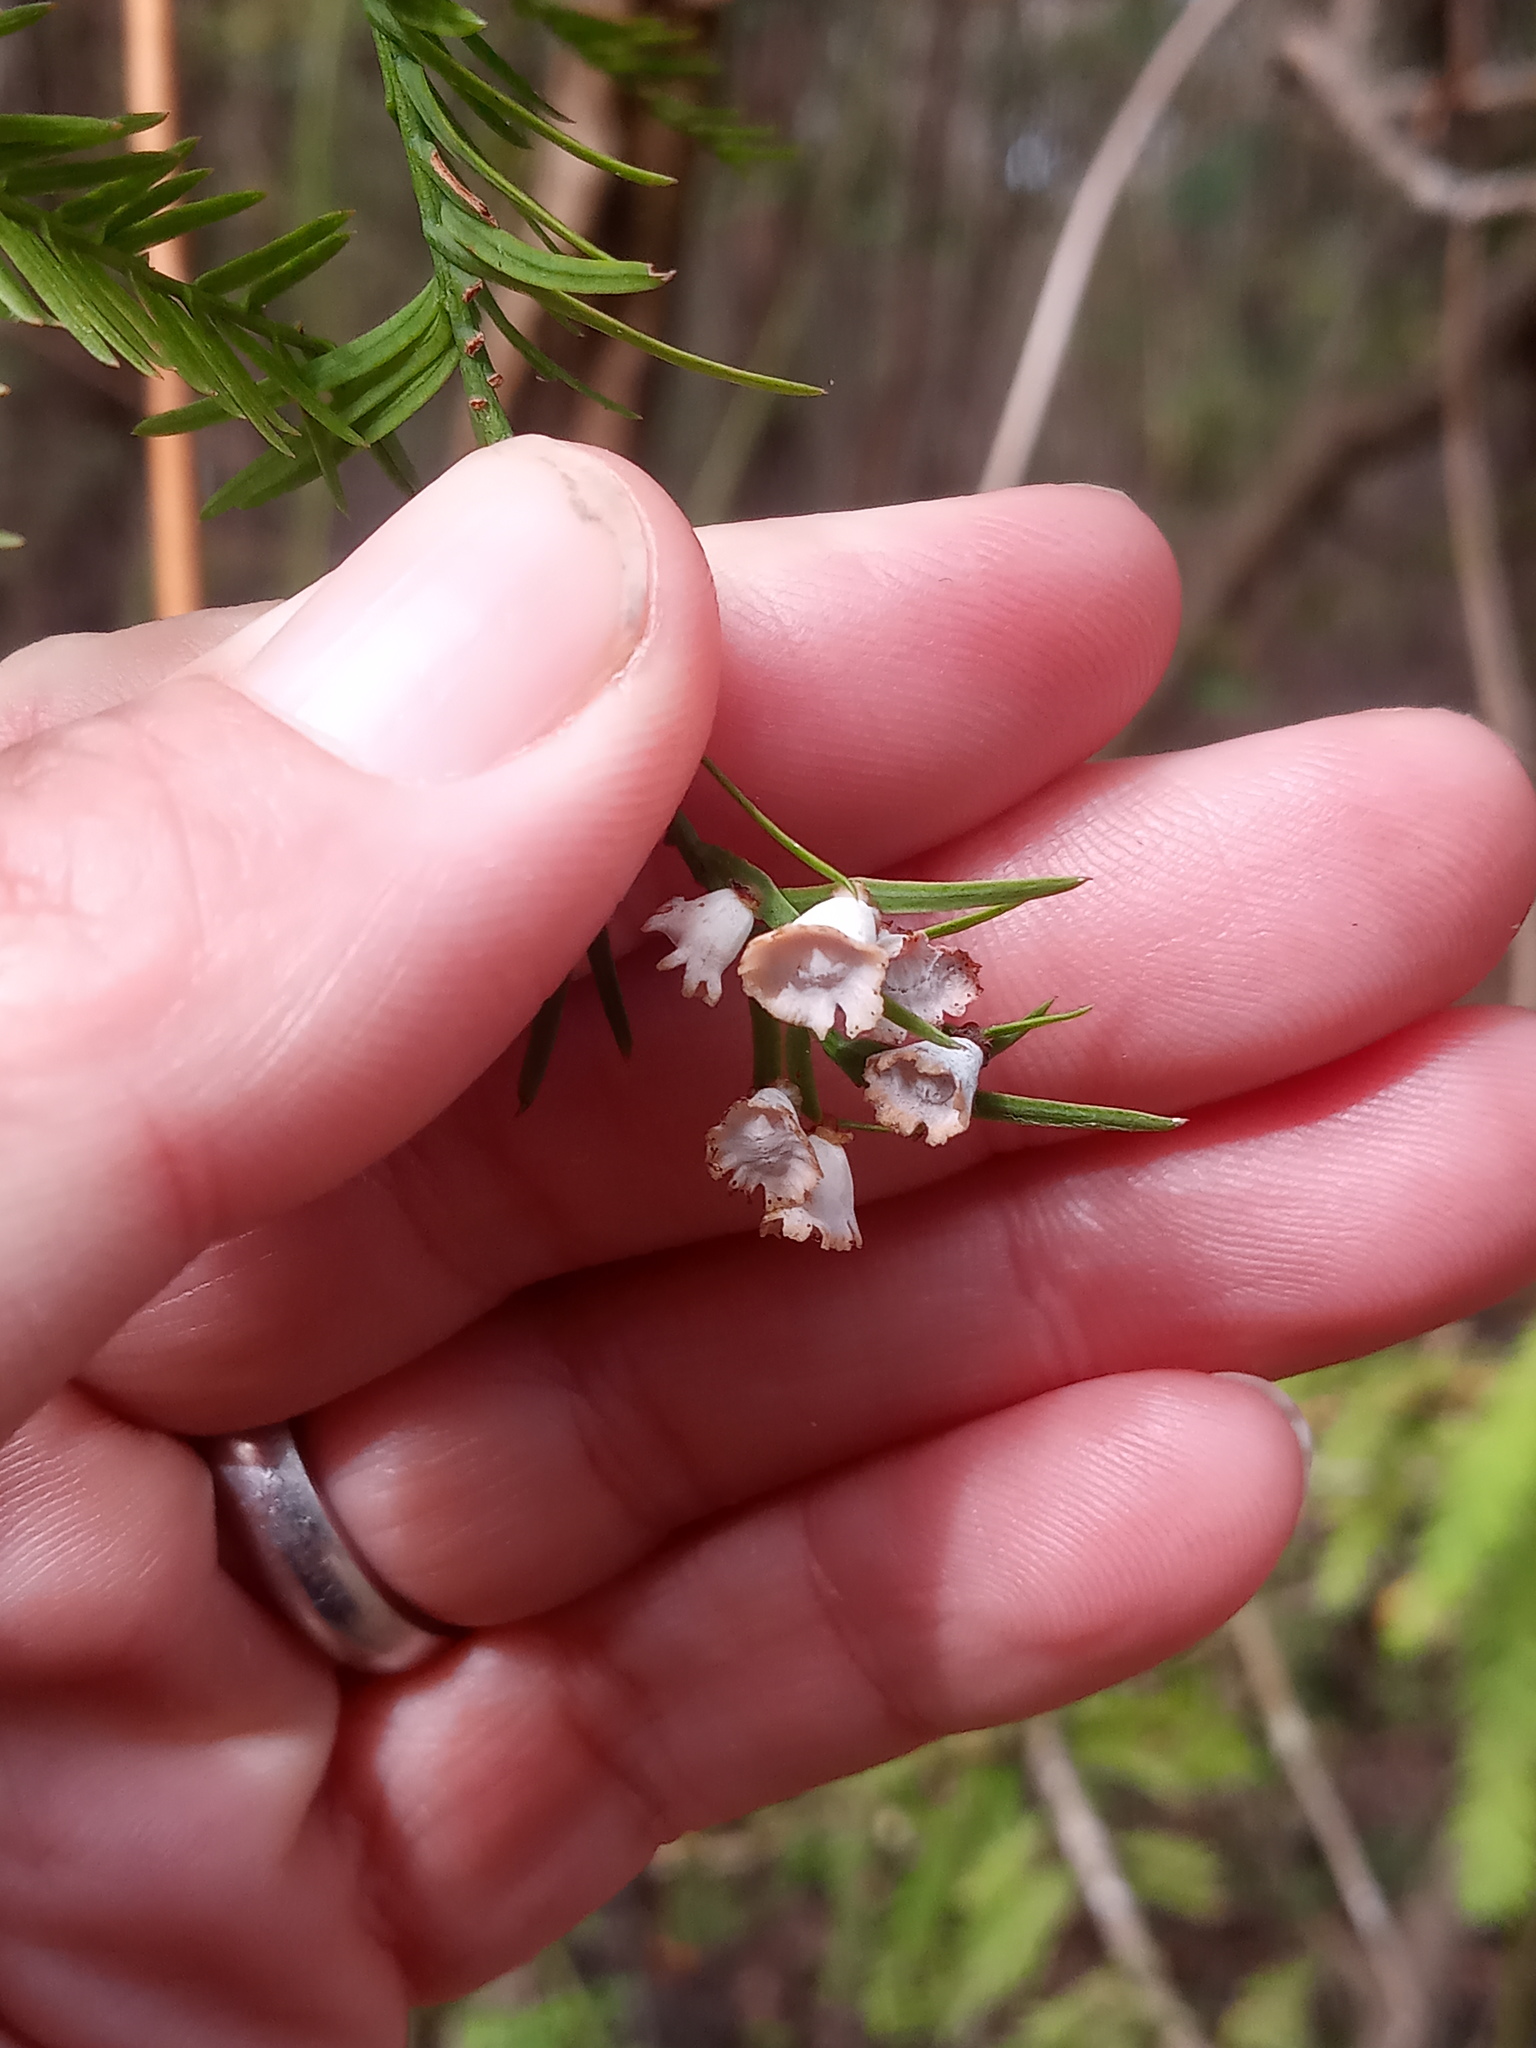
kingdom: Animalia
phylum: Arthropoda
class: Insecta
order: Diptera
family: Cecidomyiidae
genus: Taxodiomyia
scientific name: Taxodiomyia cupressi
